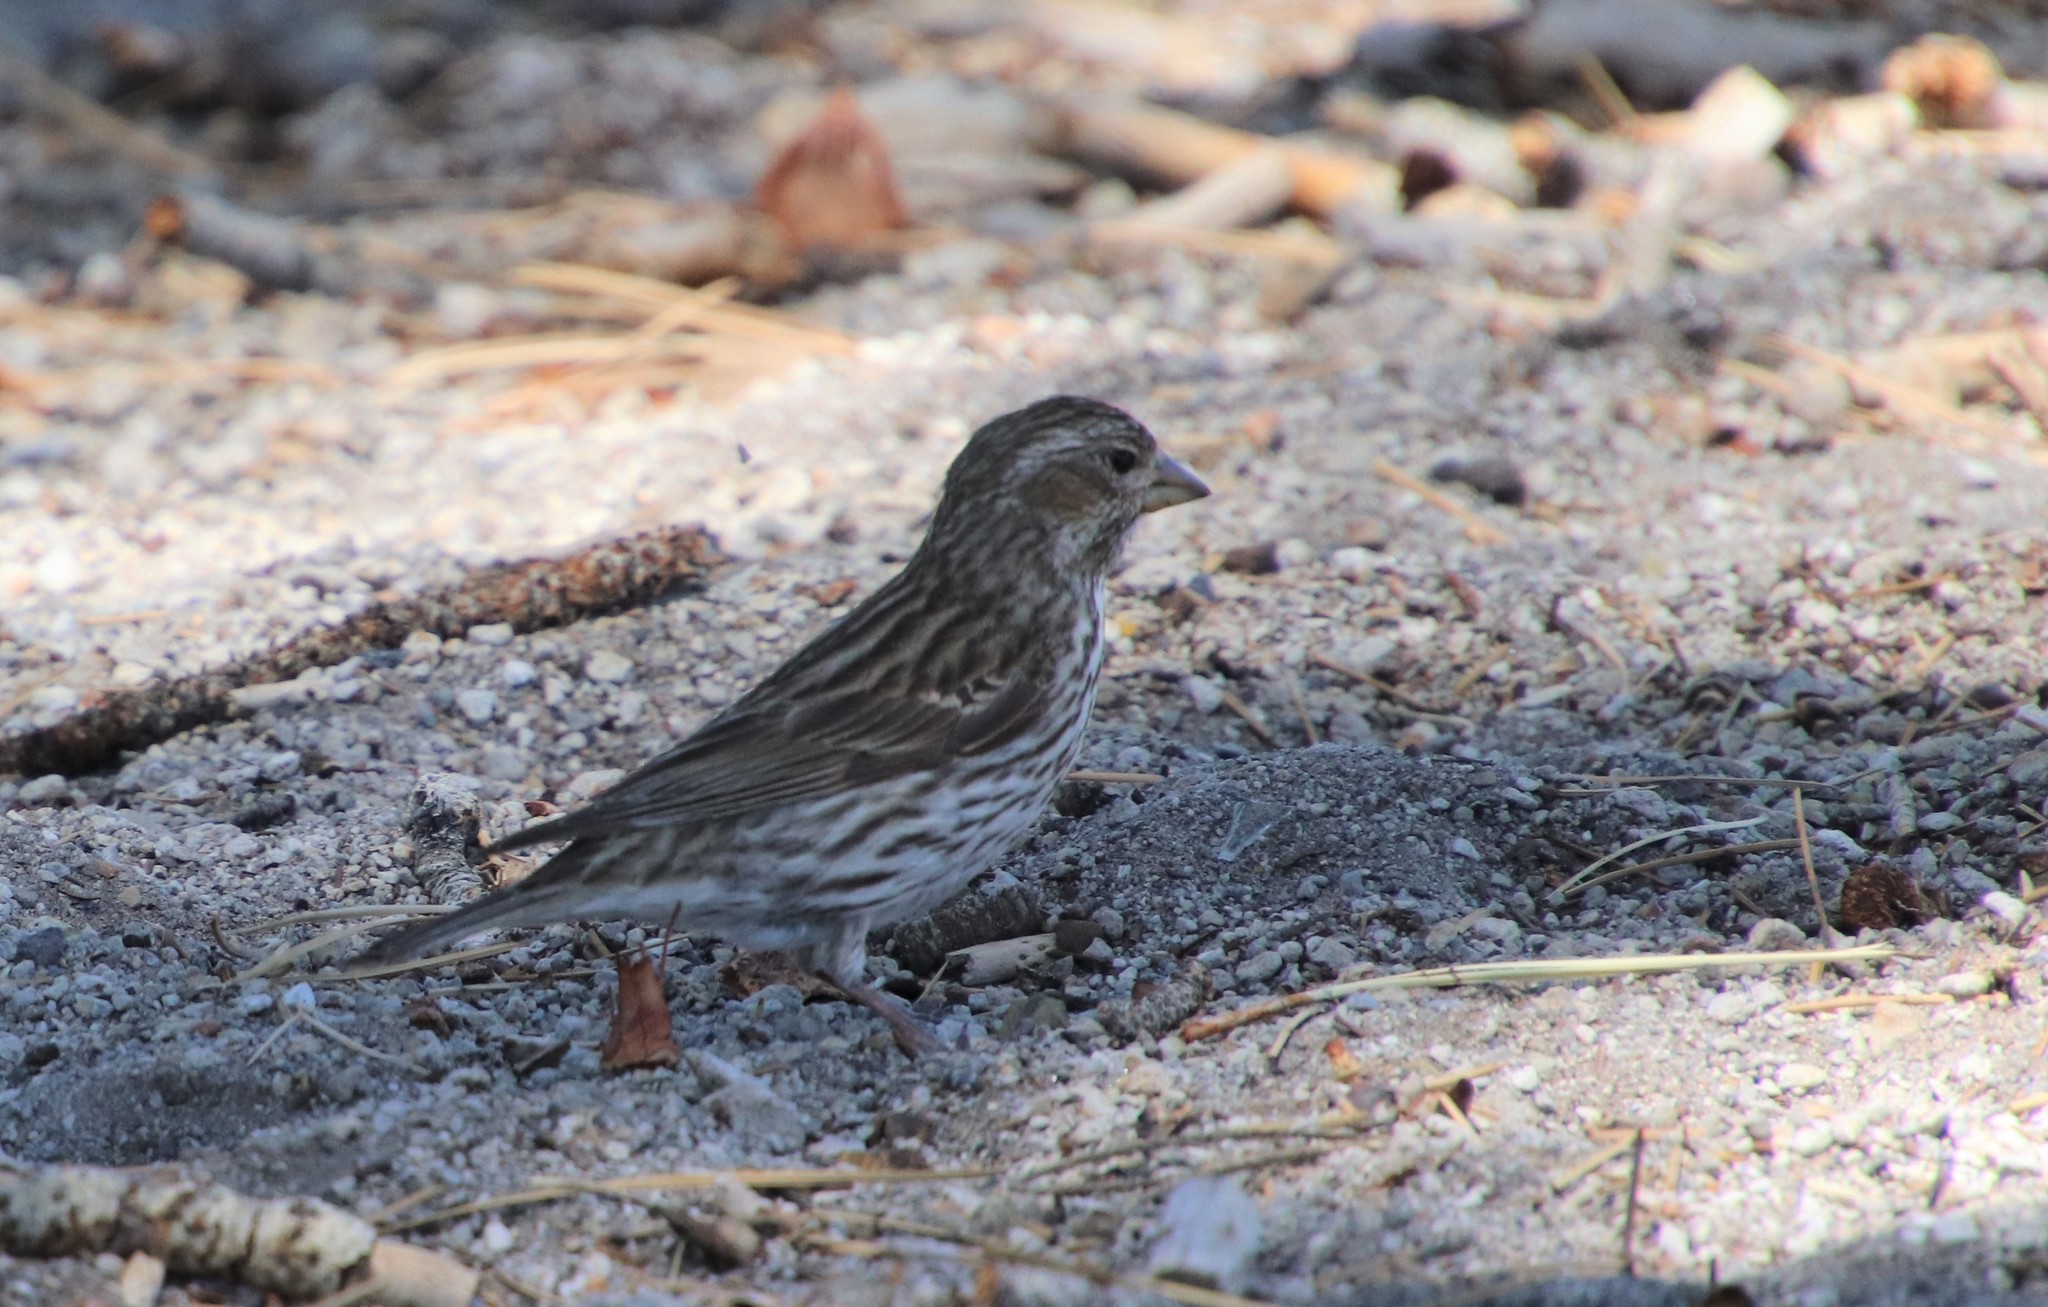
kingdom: Animalia
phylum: Chordata
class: Aves
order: Passeriformes
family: Fringillidae
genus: Haemorhous
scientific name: Haemorhous cassinii
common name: Cassin's finch
